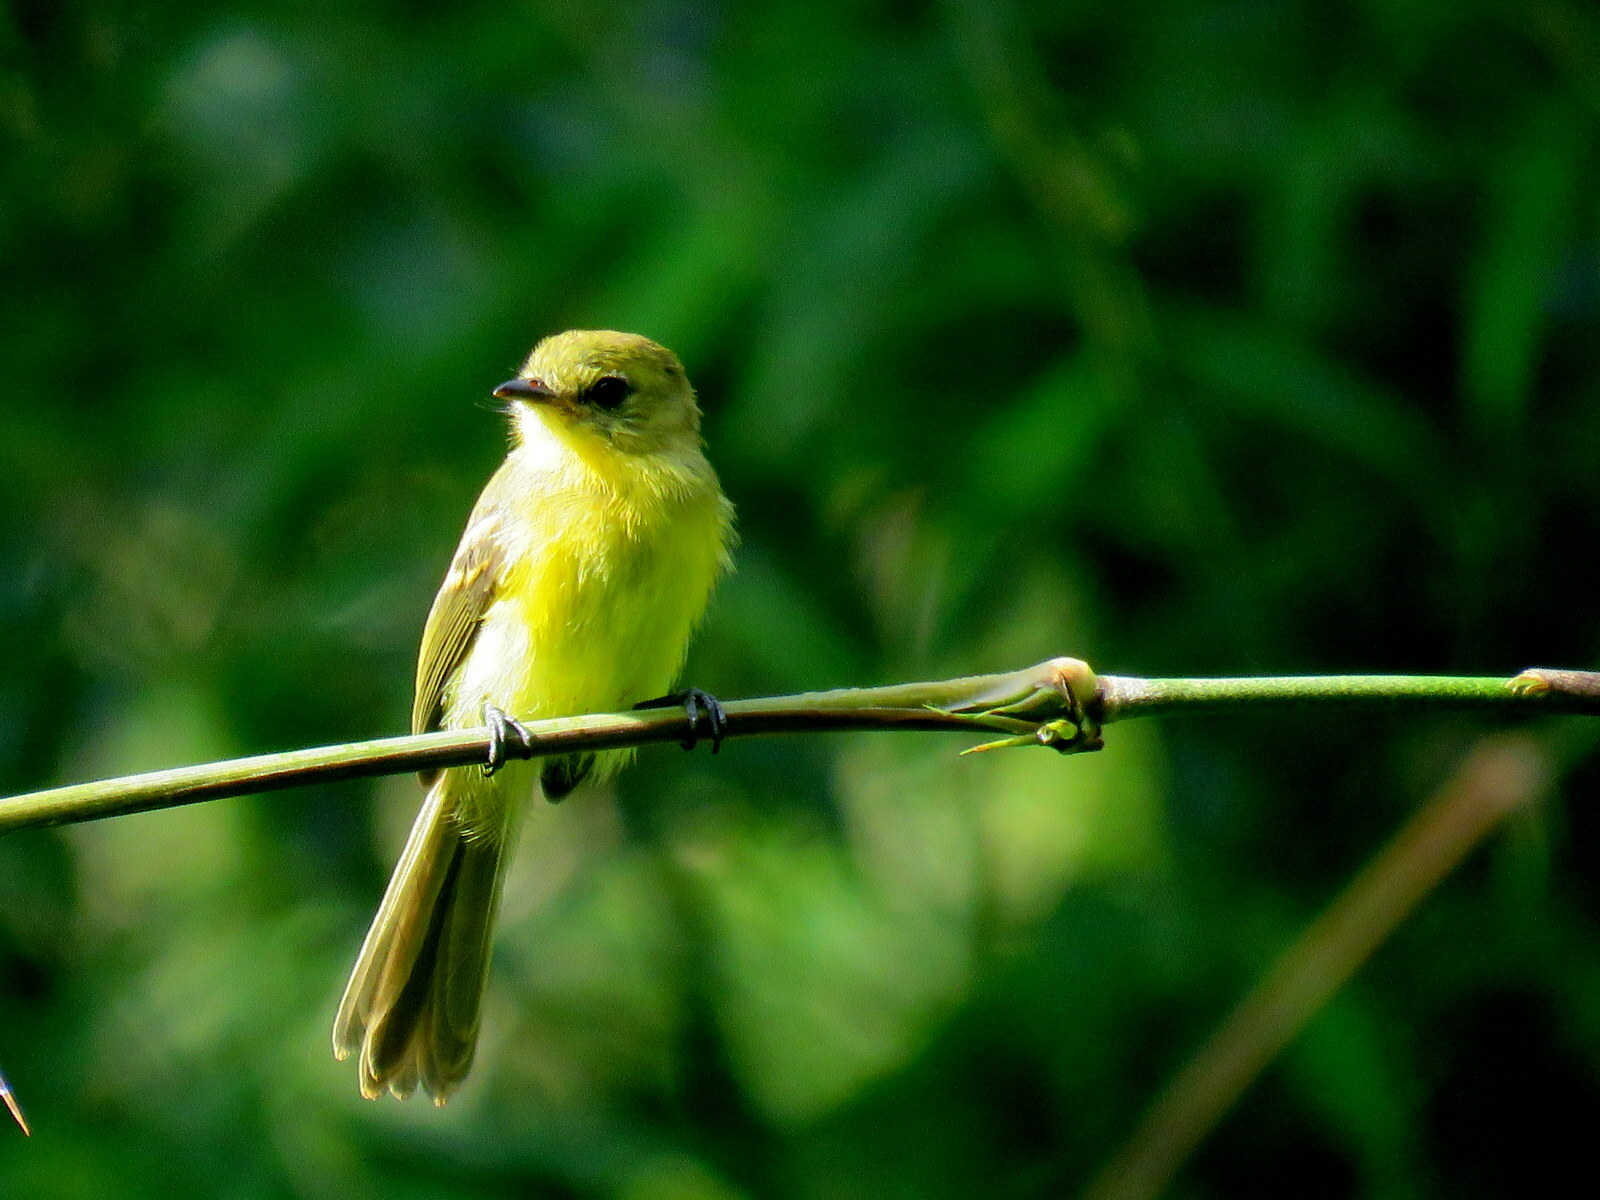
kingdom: Animalia
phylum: Chordata
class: Aves
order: Passeriformes
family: Tyrannidae
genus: Capsiempis
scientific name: Capsiempis flaveola
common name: Yellow tyrannulet
